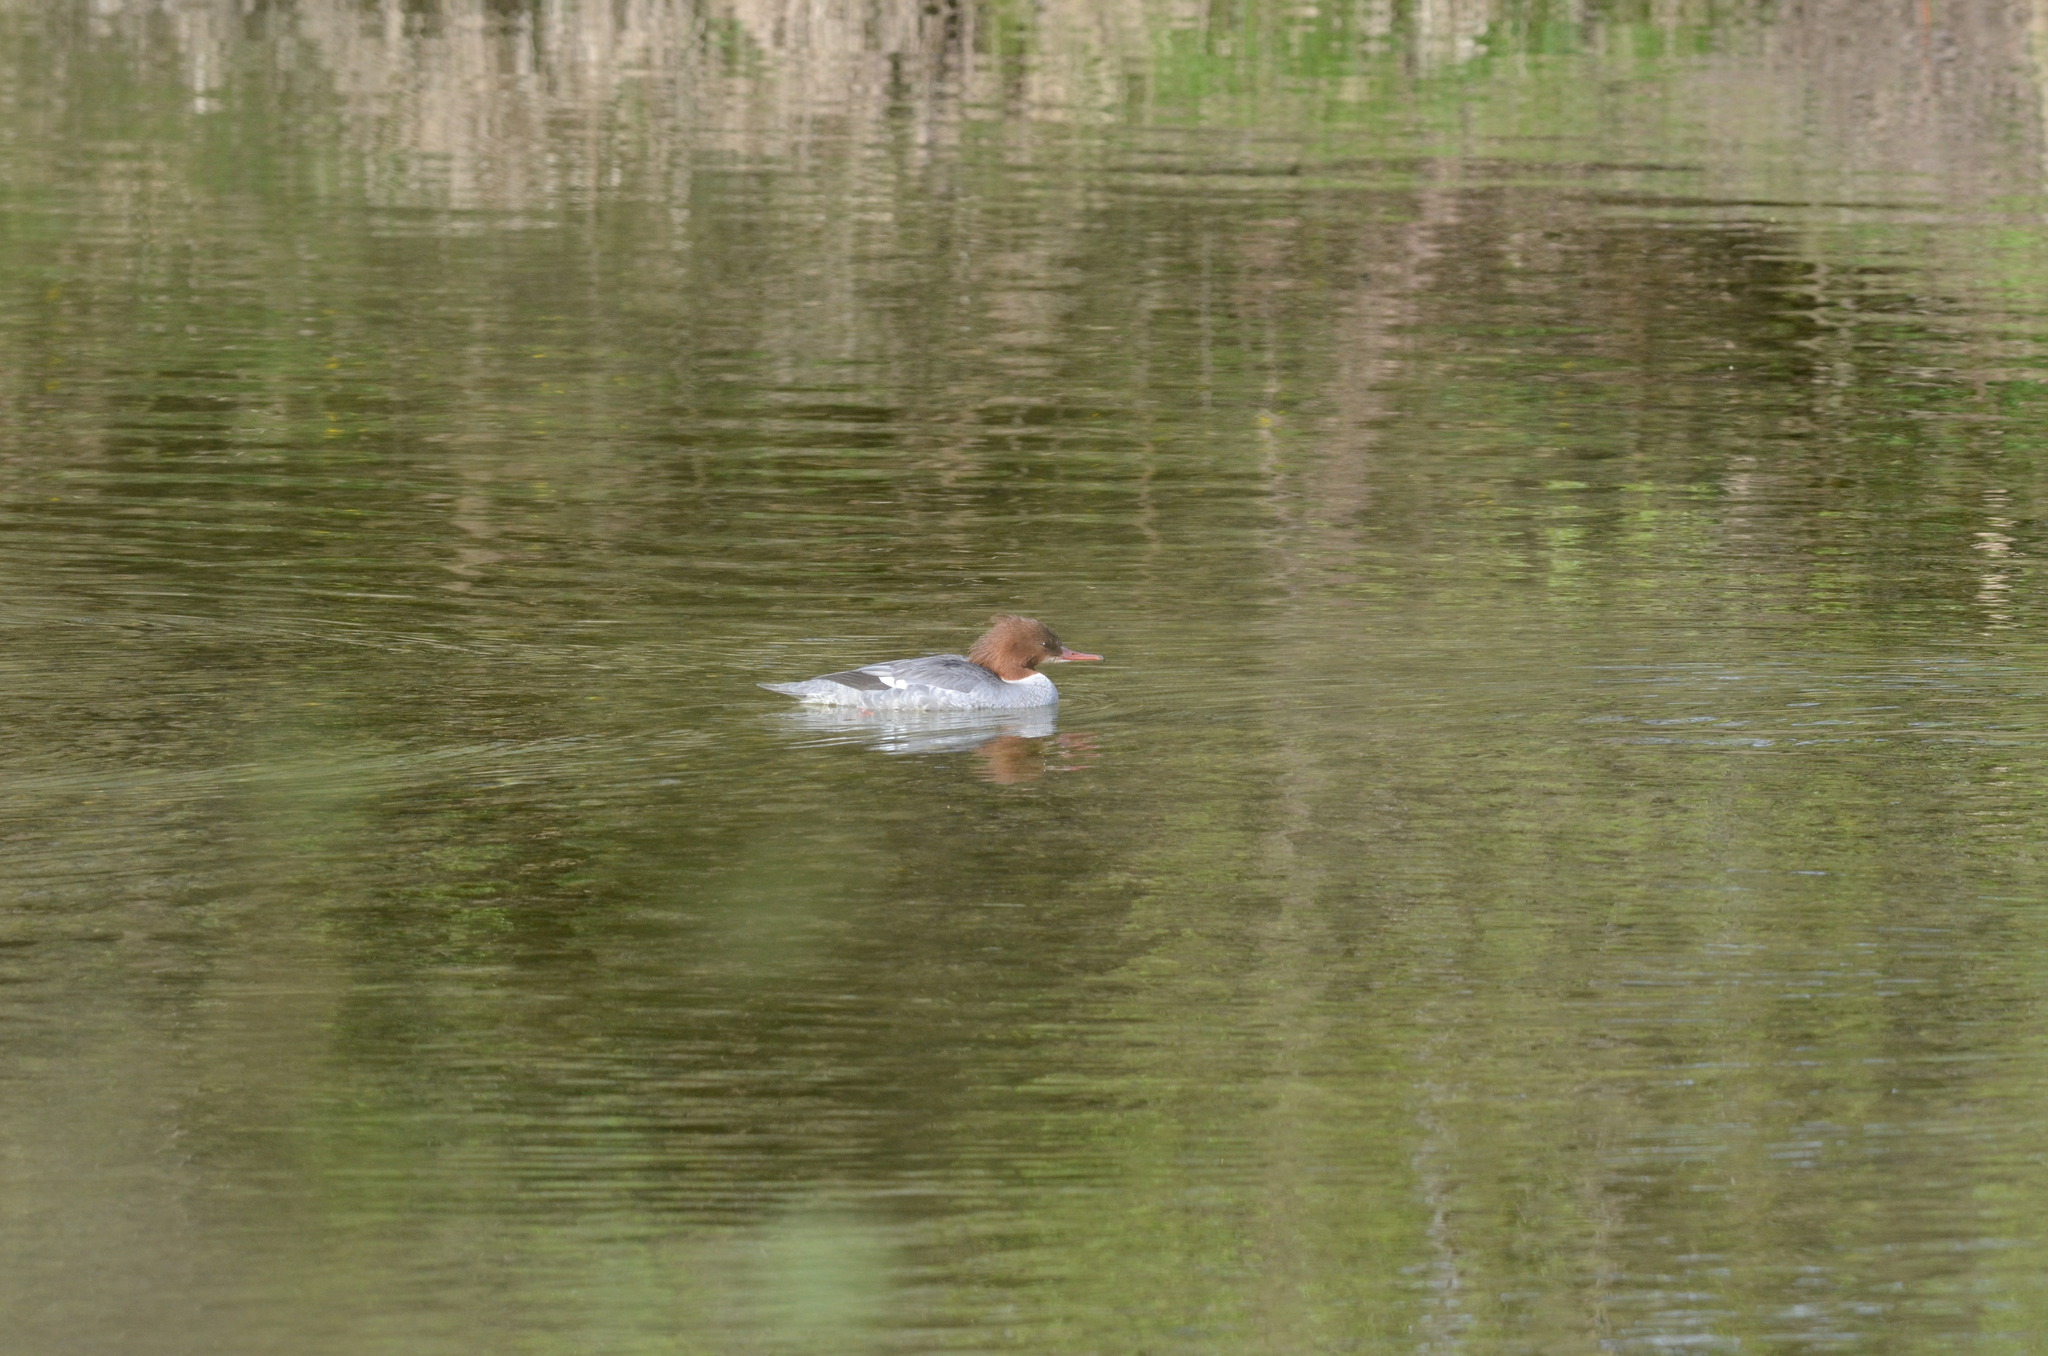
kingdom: Animalia
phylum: Chordata
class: Aves
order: Anseriformes
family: Anatidae
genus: Mergus
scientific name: Mergus merganser
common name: Common merganser
